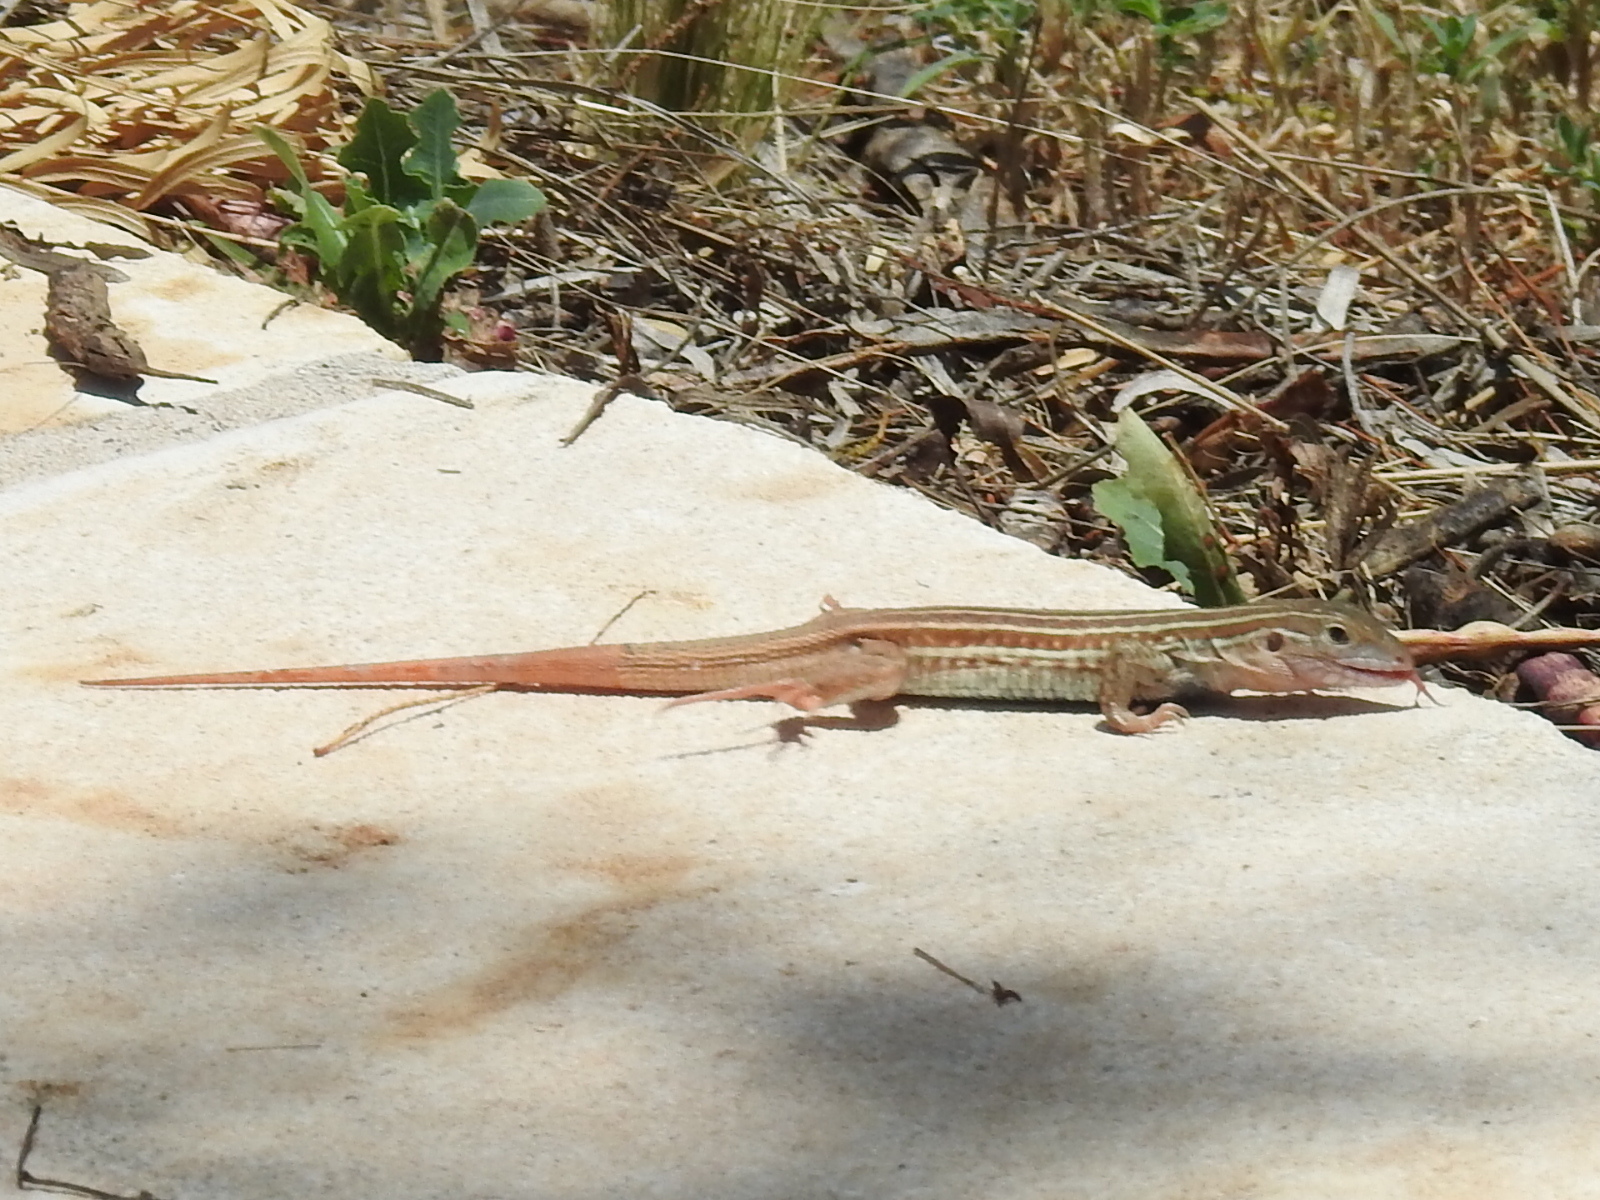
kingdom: Animalia
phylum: Chordata
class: Squamata
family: Teiidae
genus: Aspidoscelis
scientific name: Aspidoscelis gularis
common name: Eastern spotted whiptail
